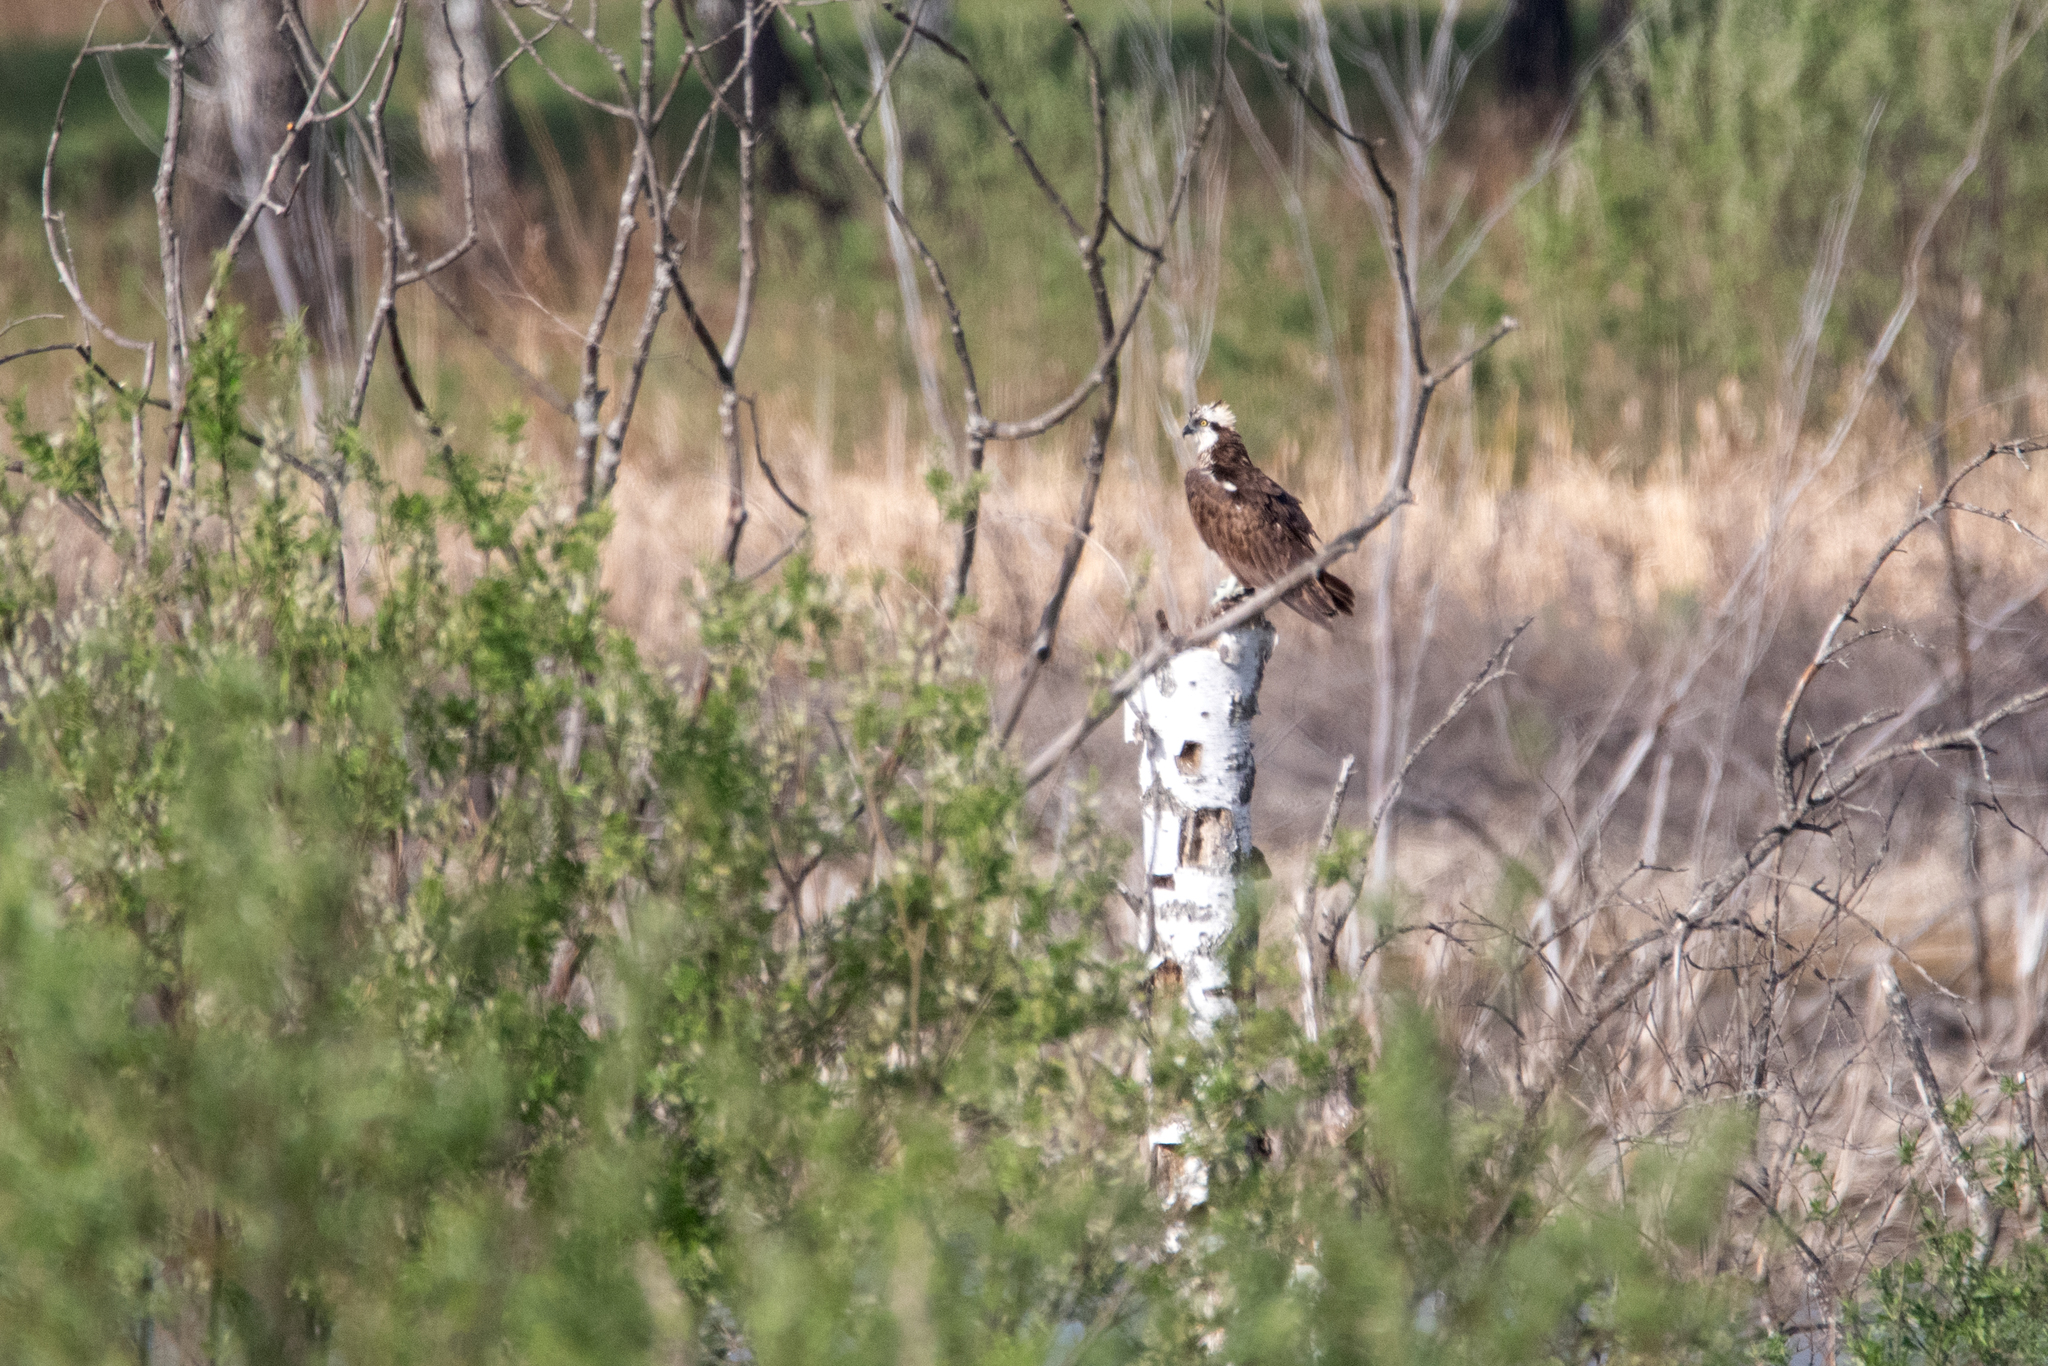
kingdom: Animalia
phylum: Chordata
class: Aves
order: Accipitriformes
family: Pandionidae
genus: Pandion
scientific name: Pandion haliaetus
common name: Osprey
